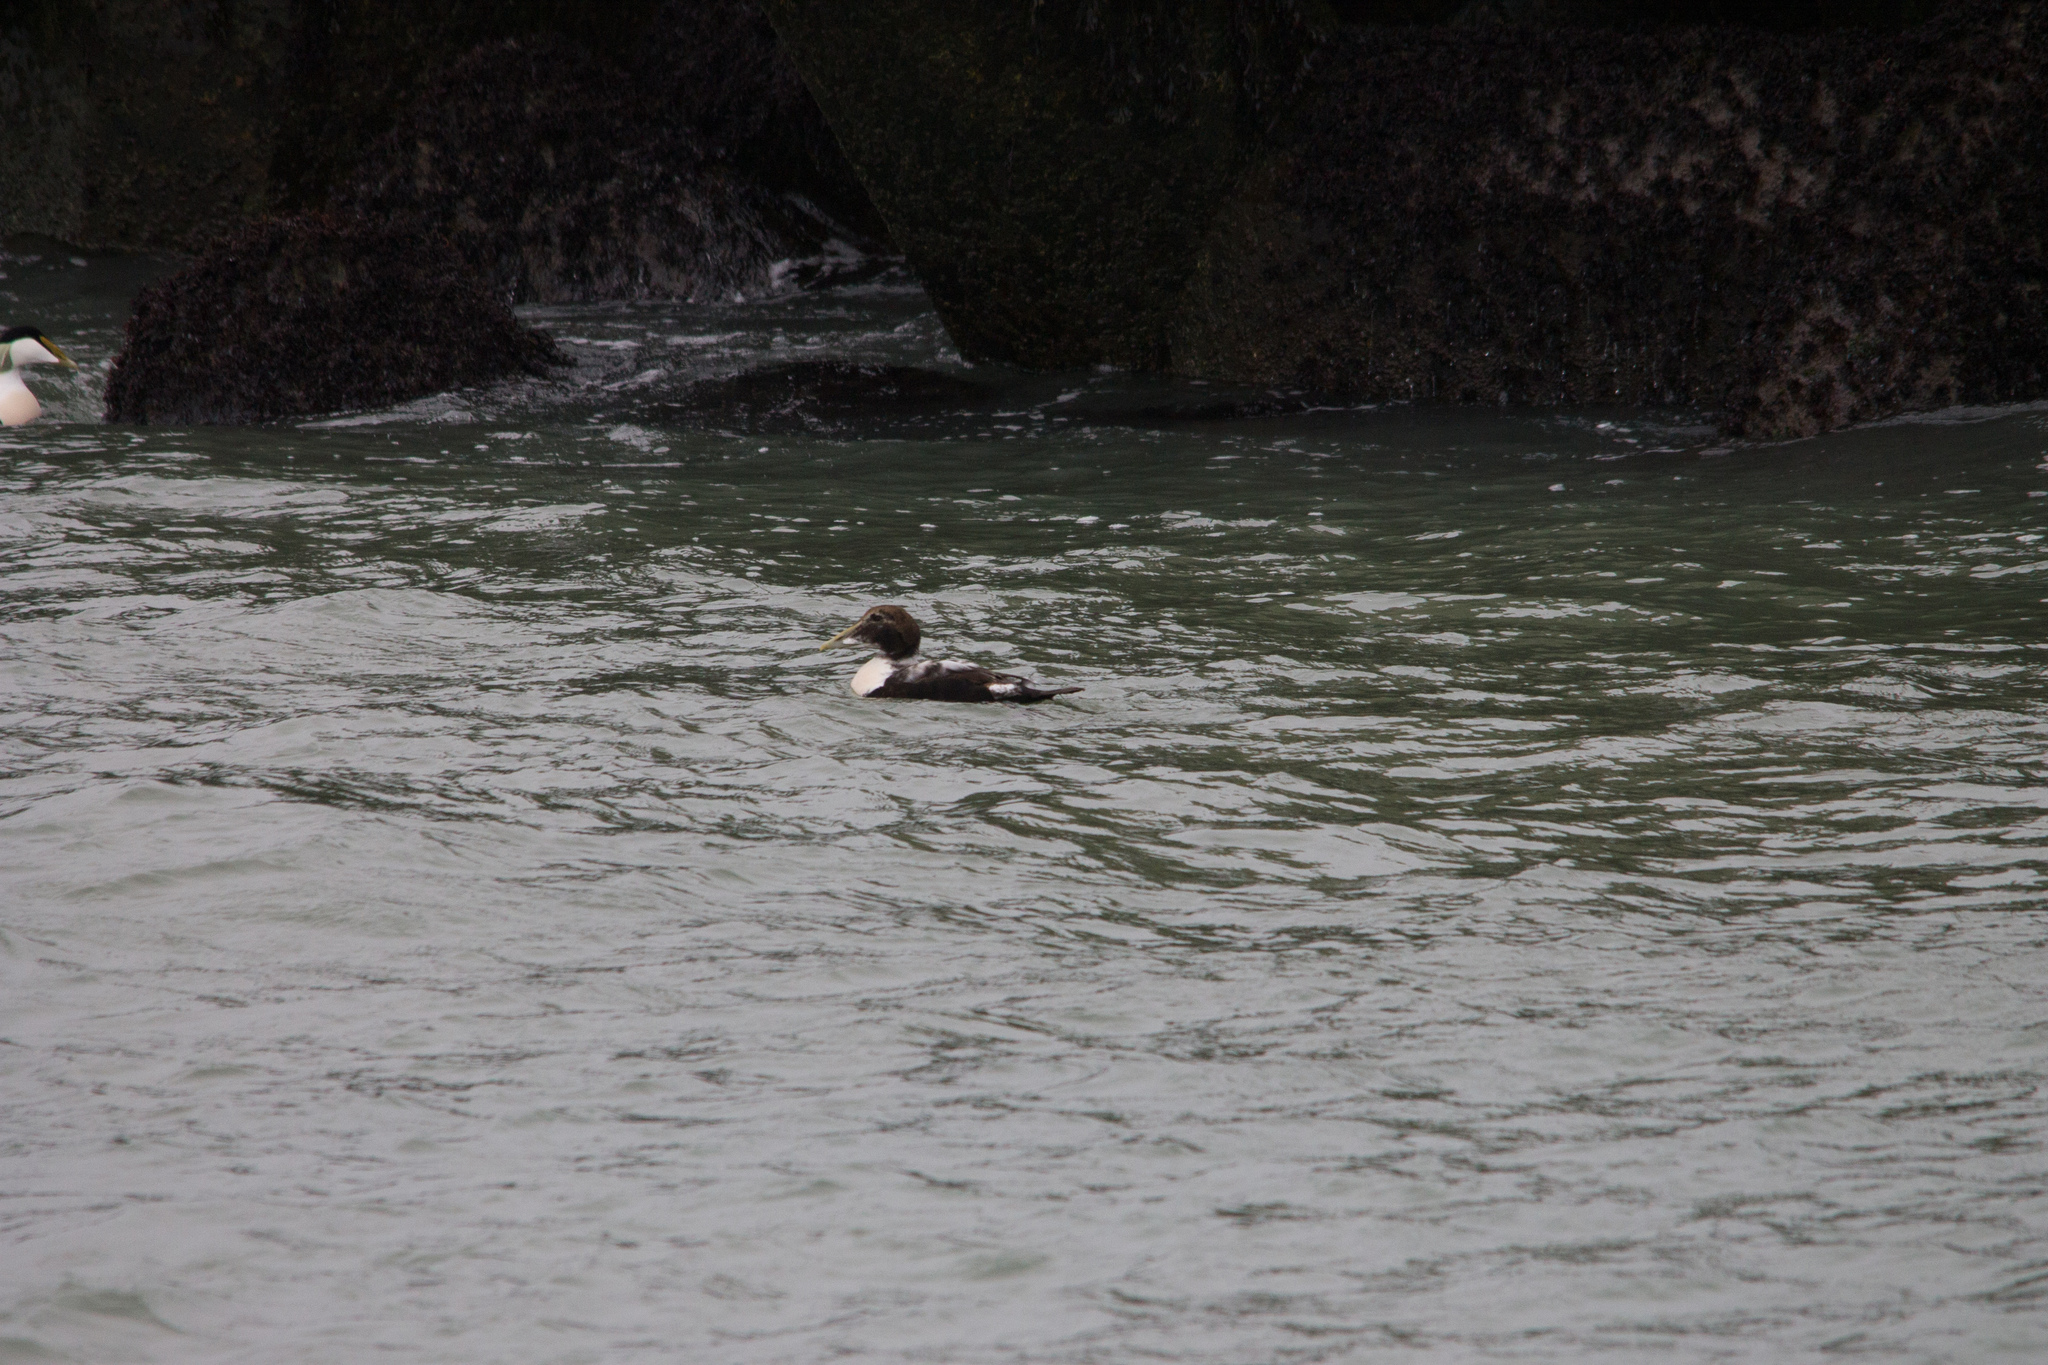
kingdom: Animalia
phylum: Chordata
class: Aves
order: Anseriformes
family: Anatidae
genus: Somateria
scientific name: Somateria mollissima
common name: Common eider
